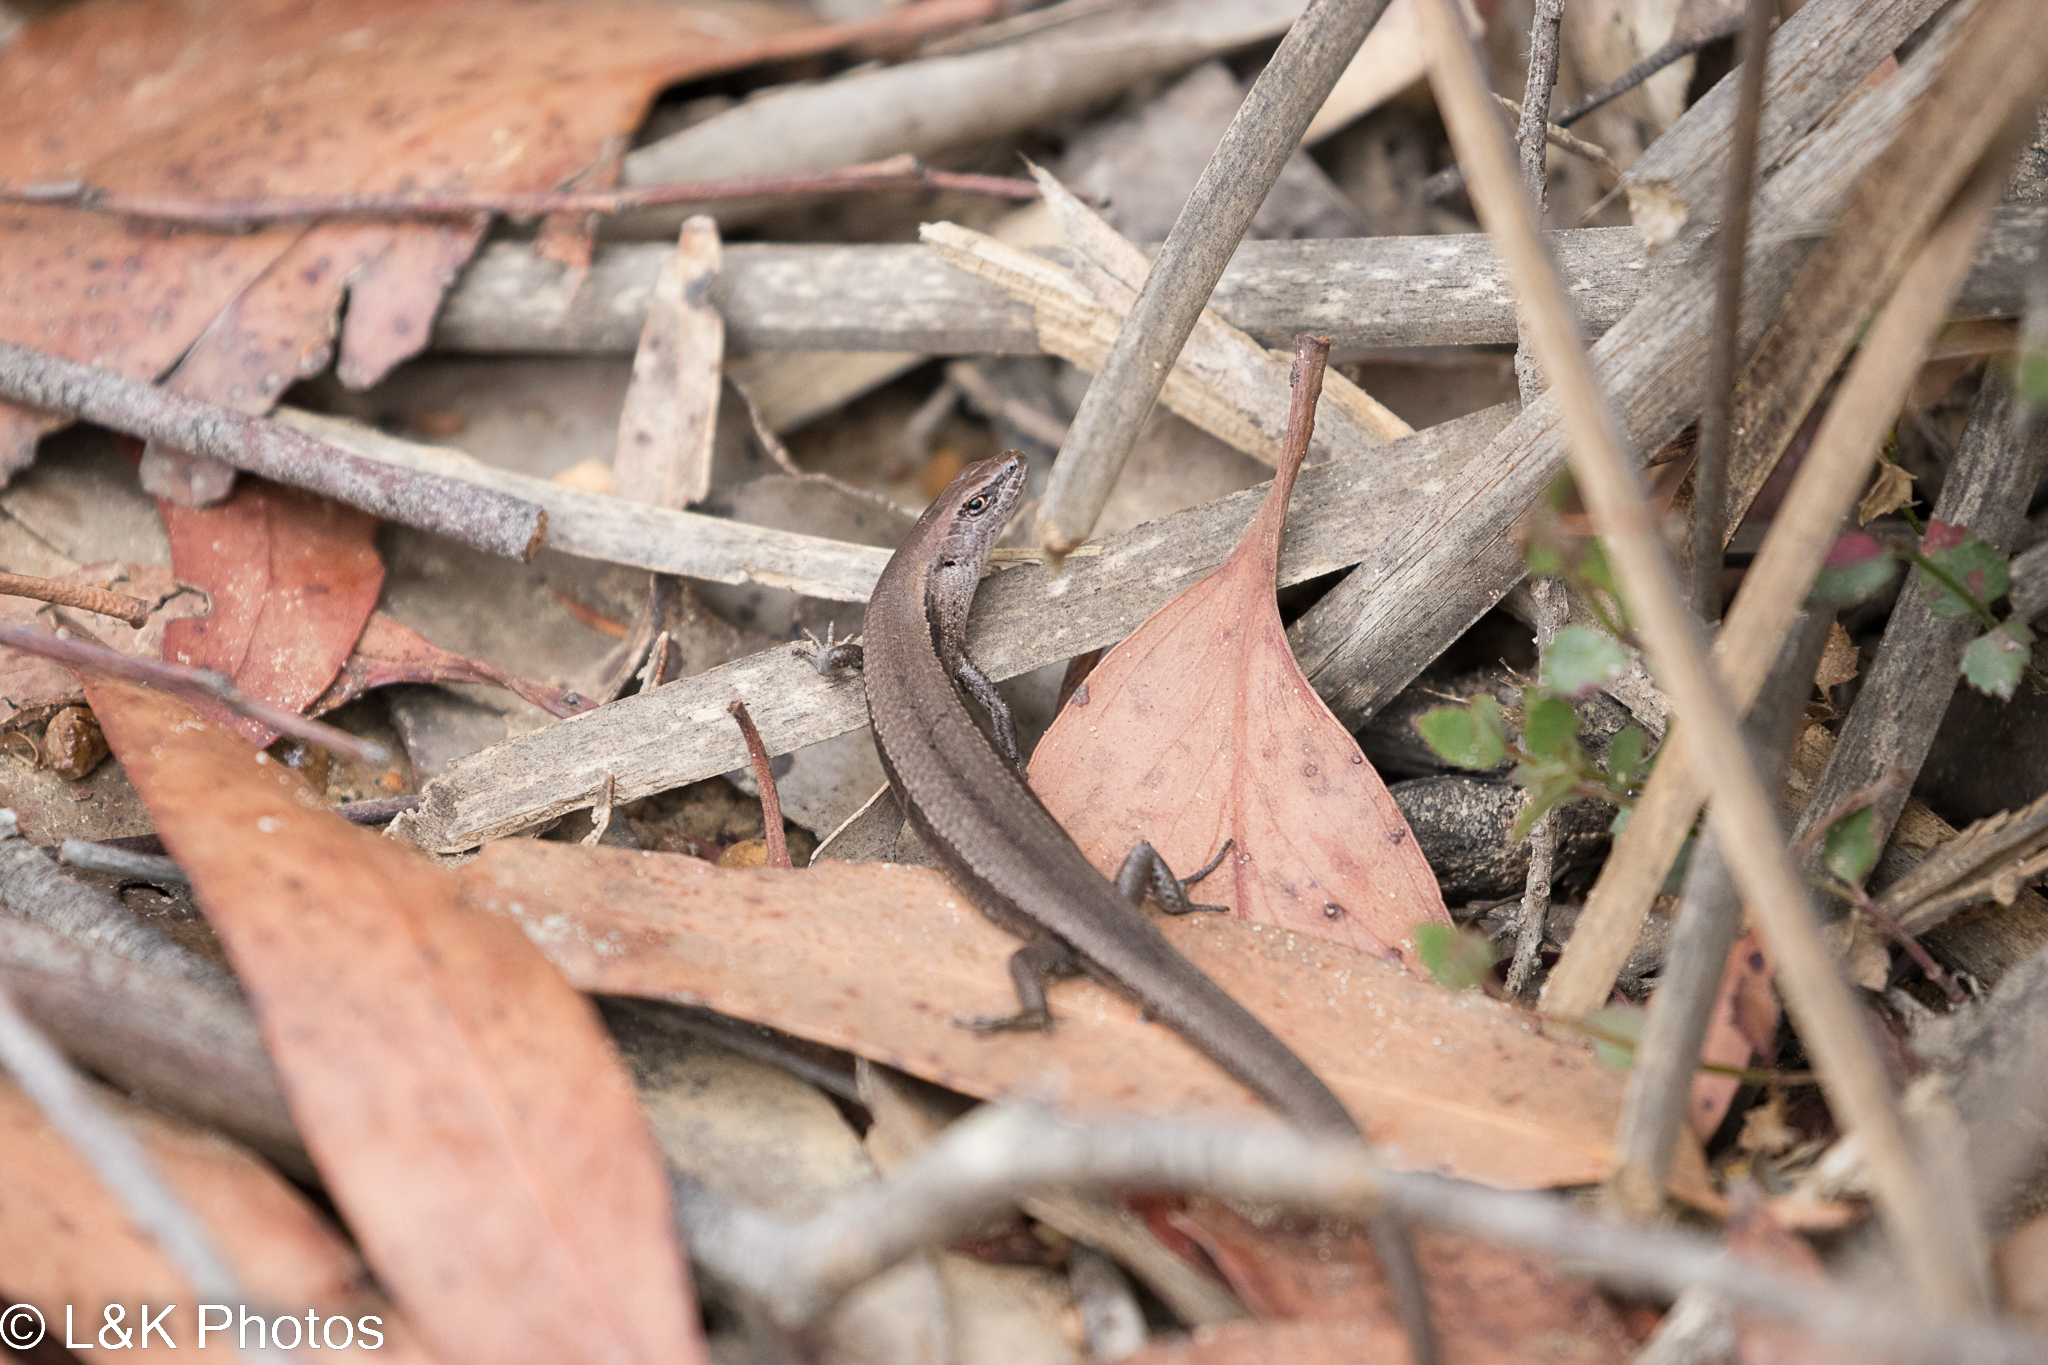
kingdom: Animalia
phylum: Chordata
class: Squamata
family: Scincidae
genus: Lampropholis
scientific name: Lampropholis guichenoti
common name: Garden skink
